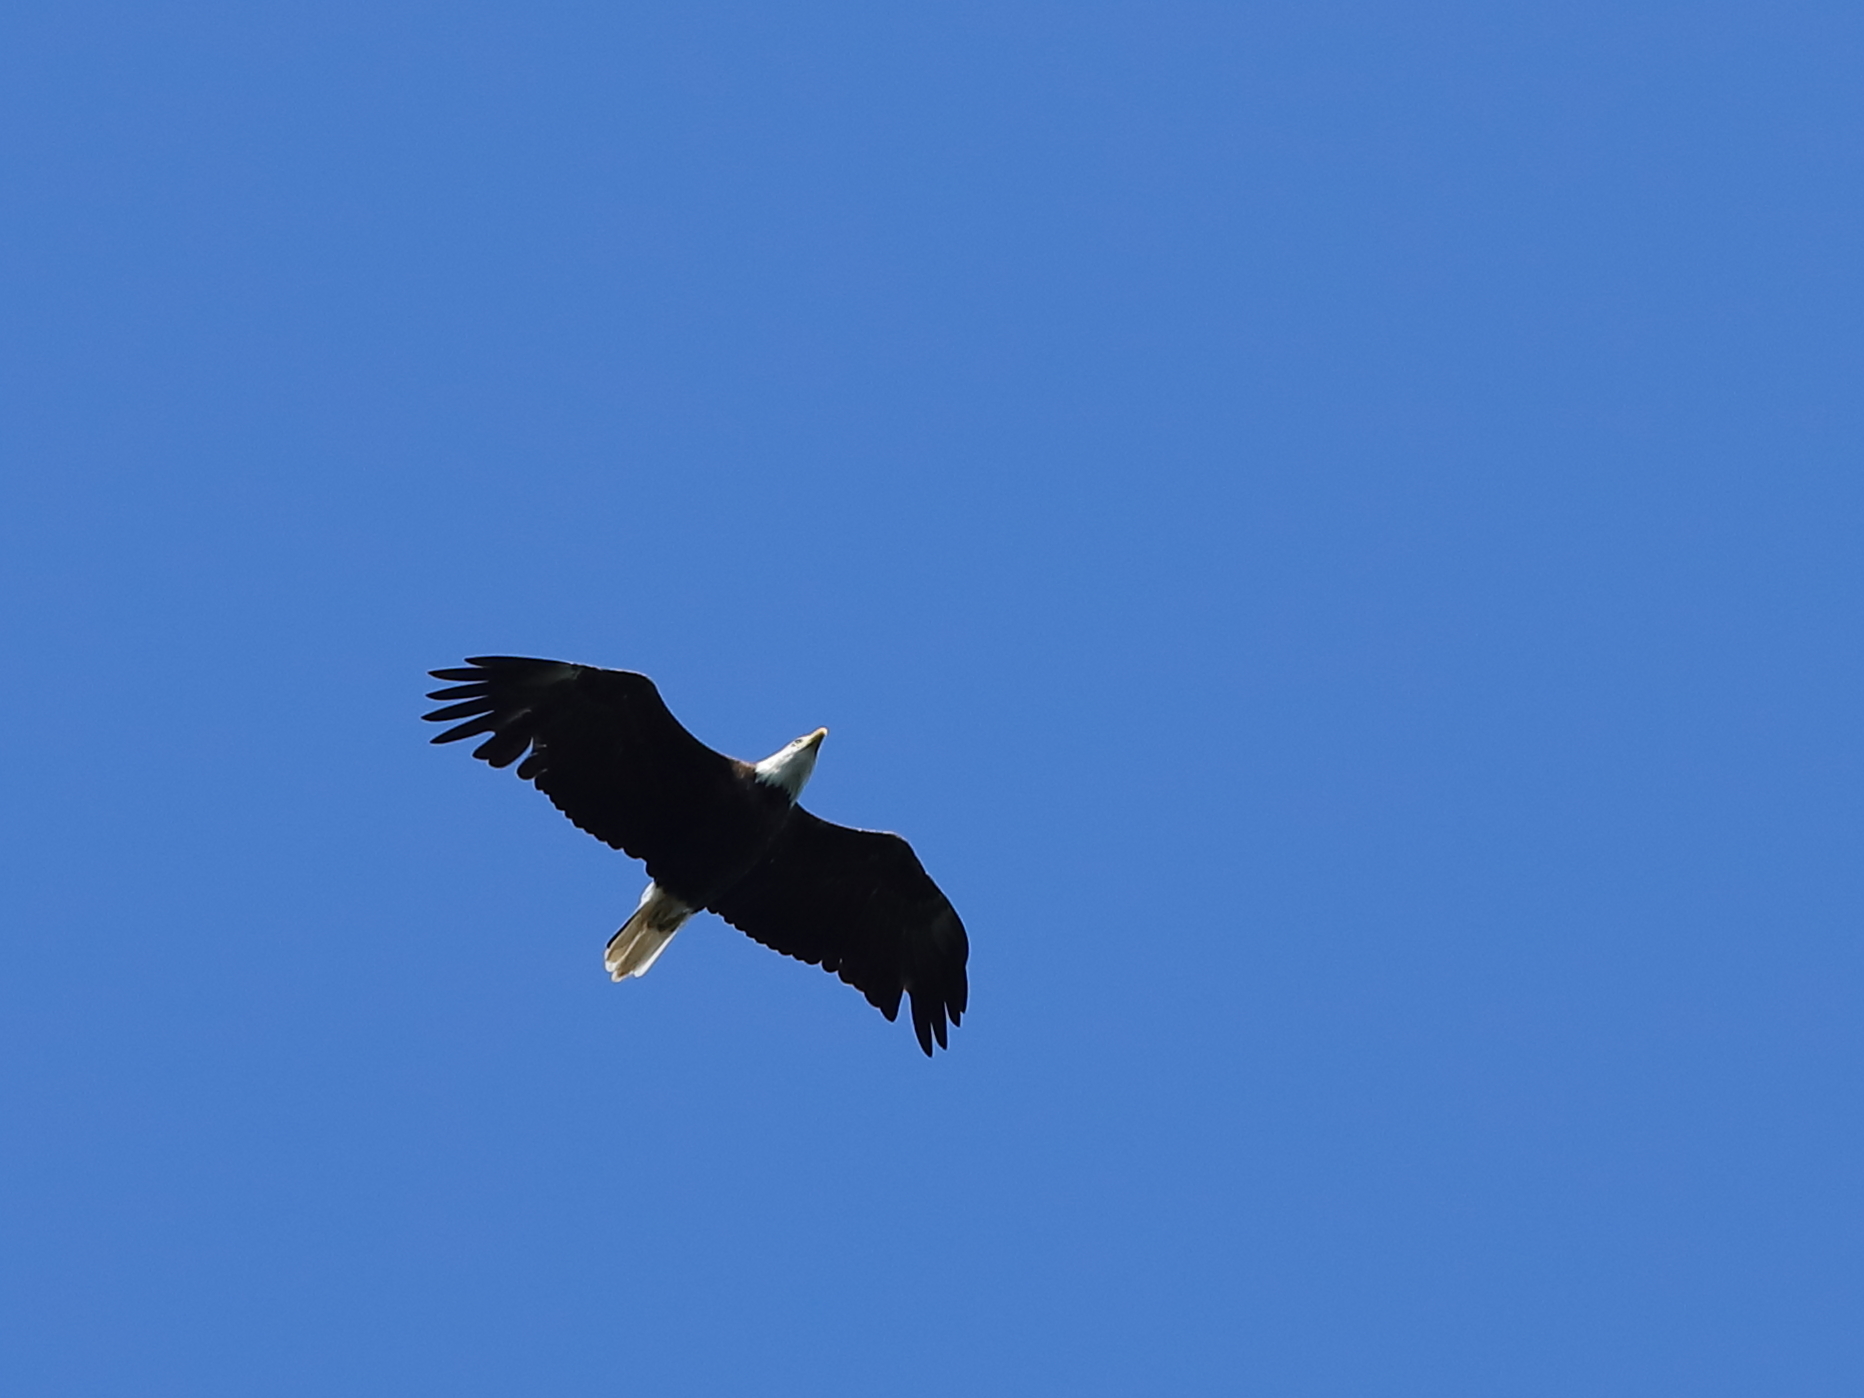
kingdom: Animalia
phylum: Chordata
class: Aves
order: Accipitriformes
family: Accipitridae
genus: Haliaeetus
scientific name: Haliaeetus leucocephalus
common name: Bald eagle
